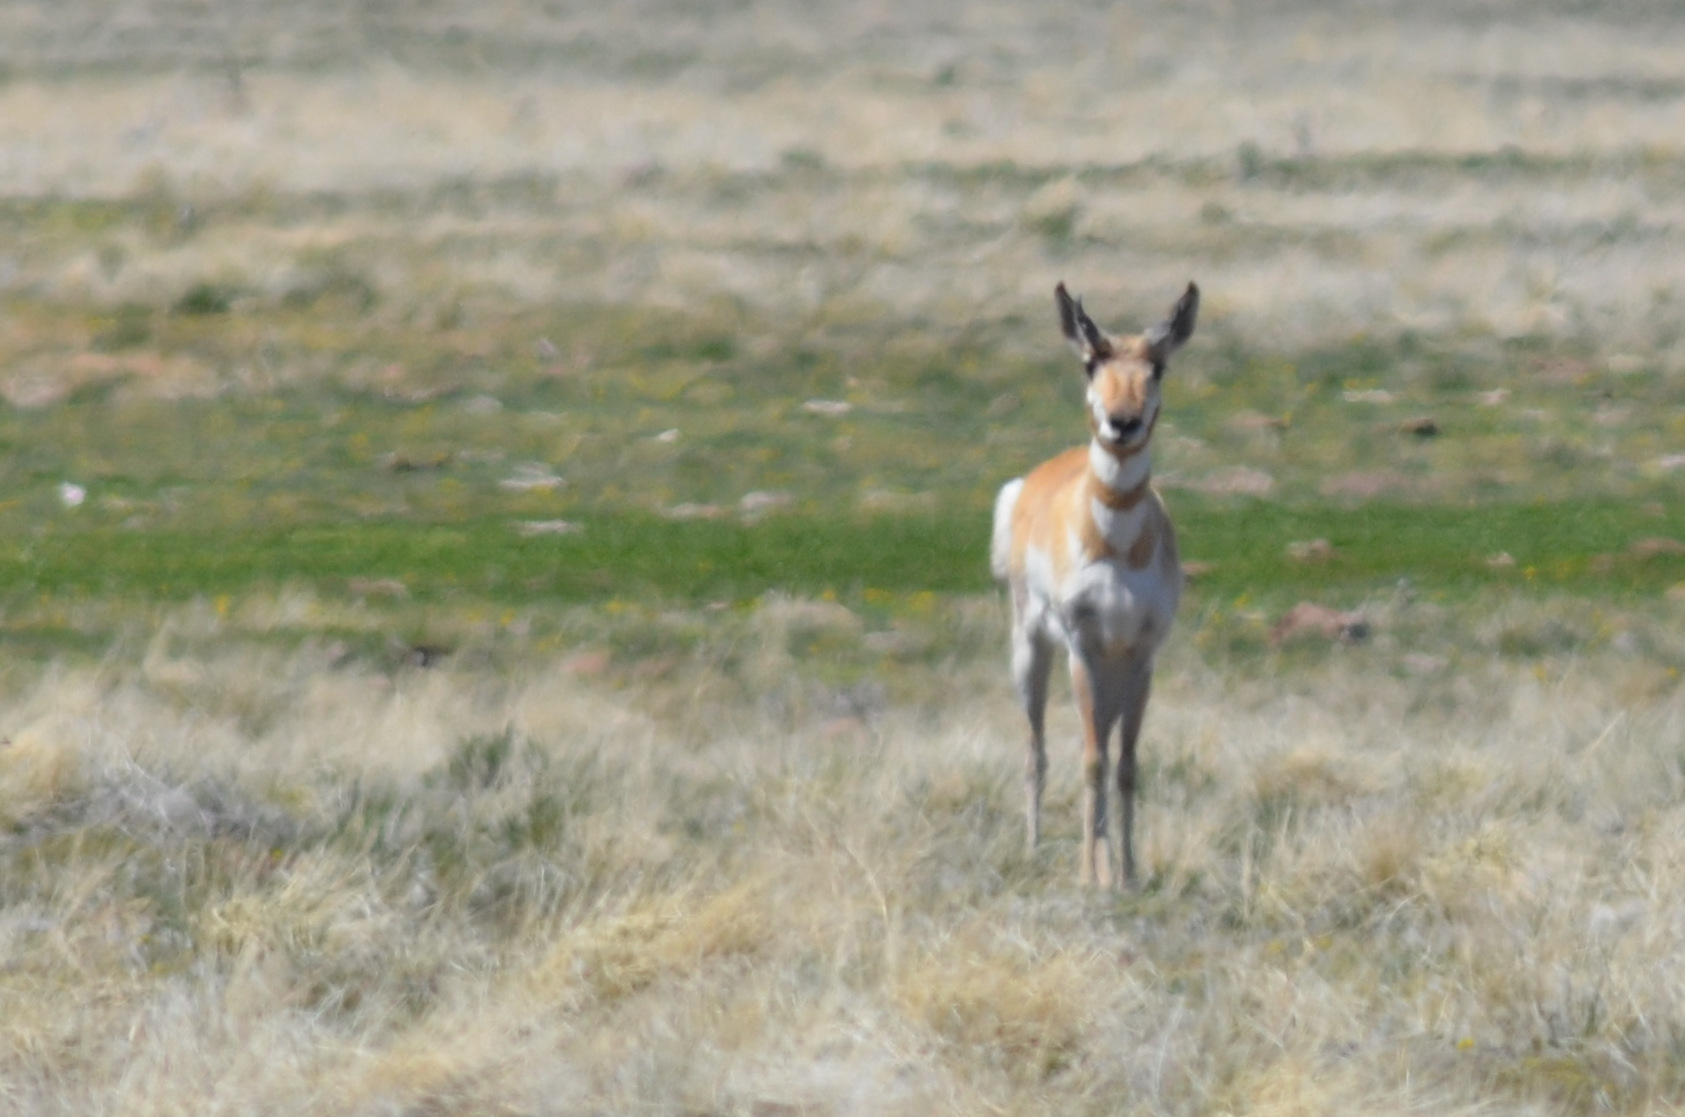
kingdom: Animalia
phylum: Chordata
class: Mammalia
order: Artiodactyla
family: Antilocapridae
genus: Antilocapra
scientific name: Antilocapra americana
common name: Pronghorn
